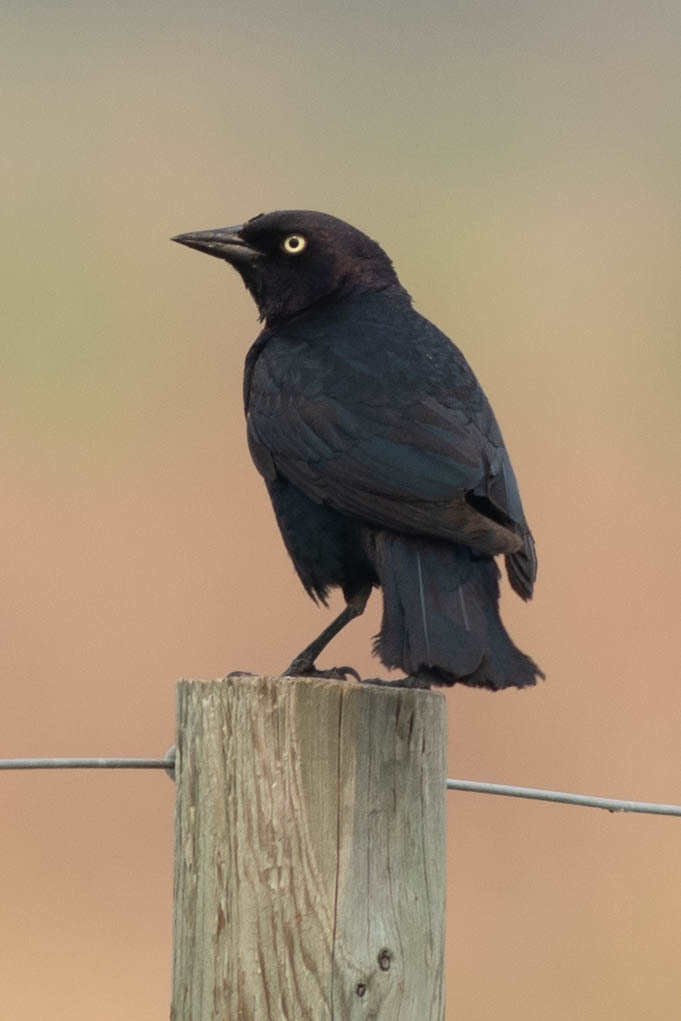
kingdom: Animalia
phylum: Chordata
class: Aves
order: Passeriformes
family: Icteridae
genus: Euphagus
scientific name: Euphagus cyanocephalus
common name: Brewer's blackbird
